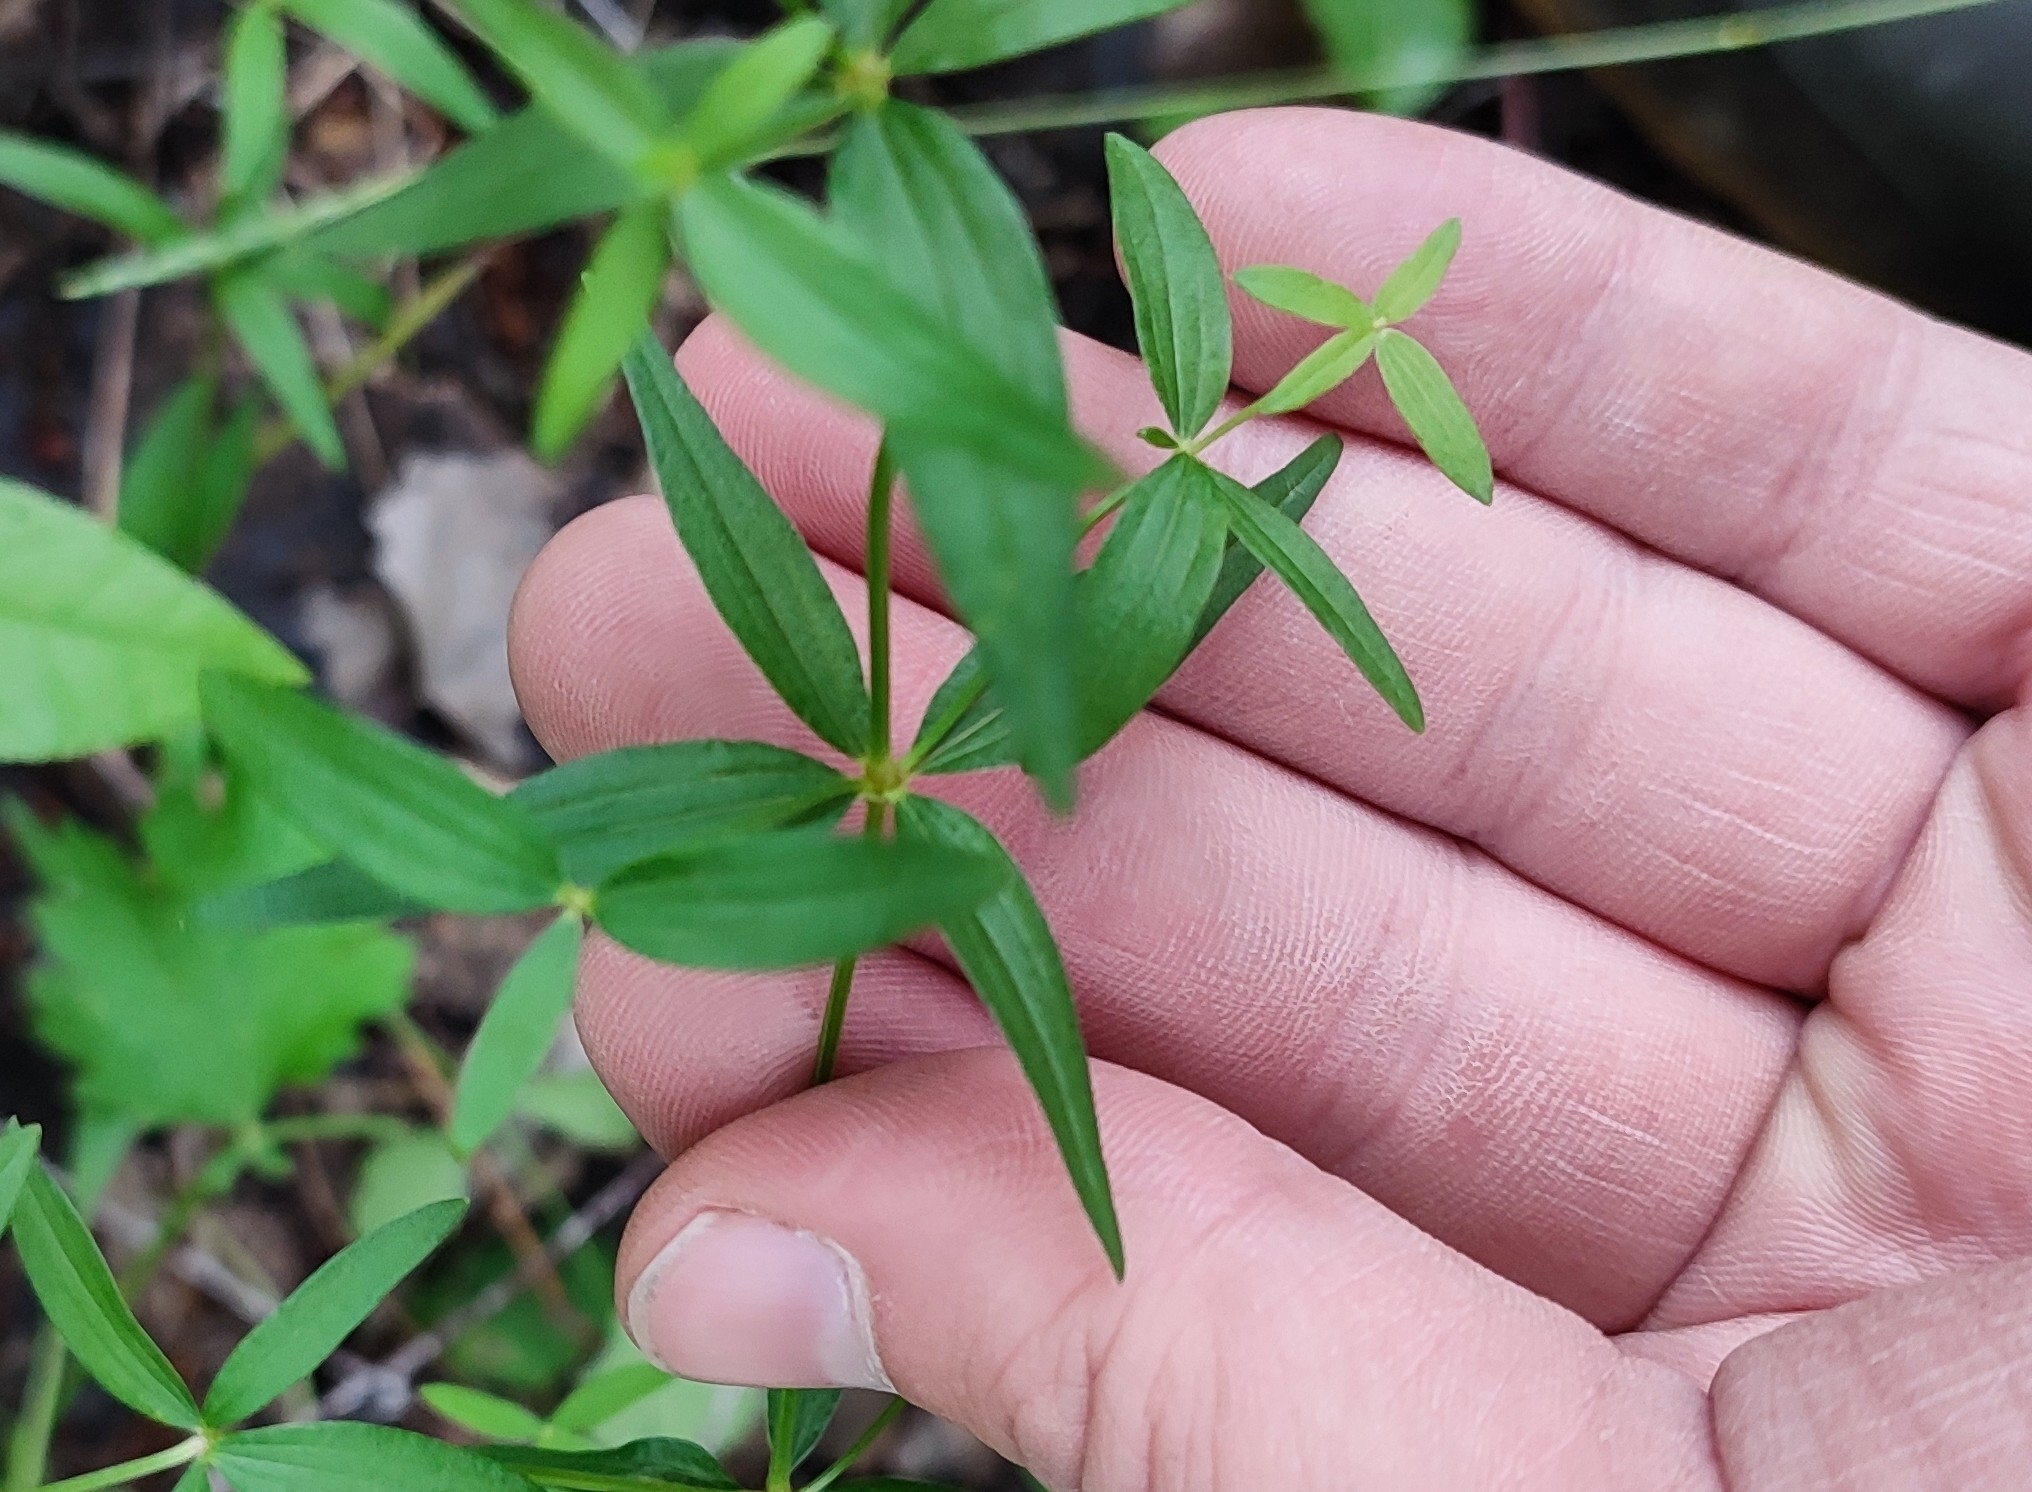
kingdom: Plantae
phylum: Tracheophyta
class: Magnoliopsida
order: Gentianales
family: Rubiaceae
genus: Galium
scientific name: Galium boreale
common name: Northern bedstraw
